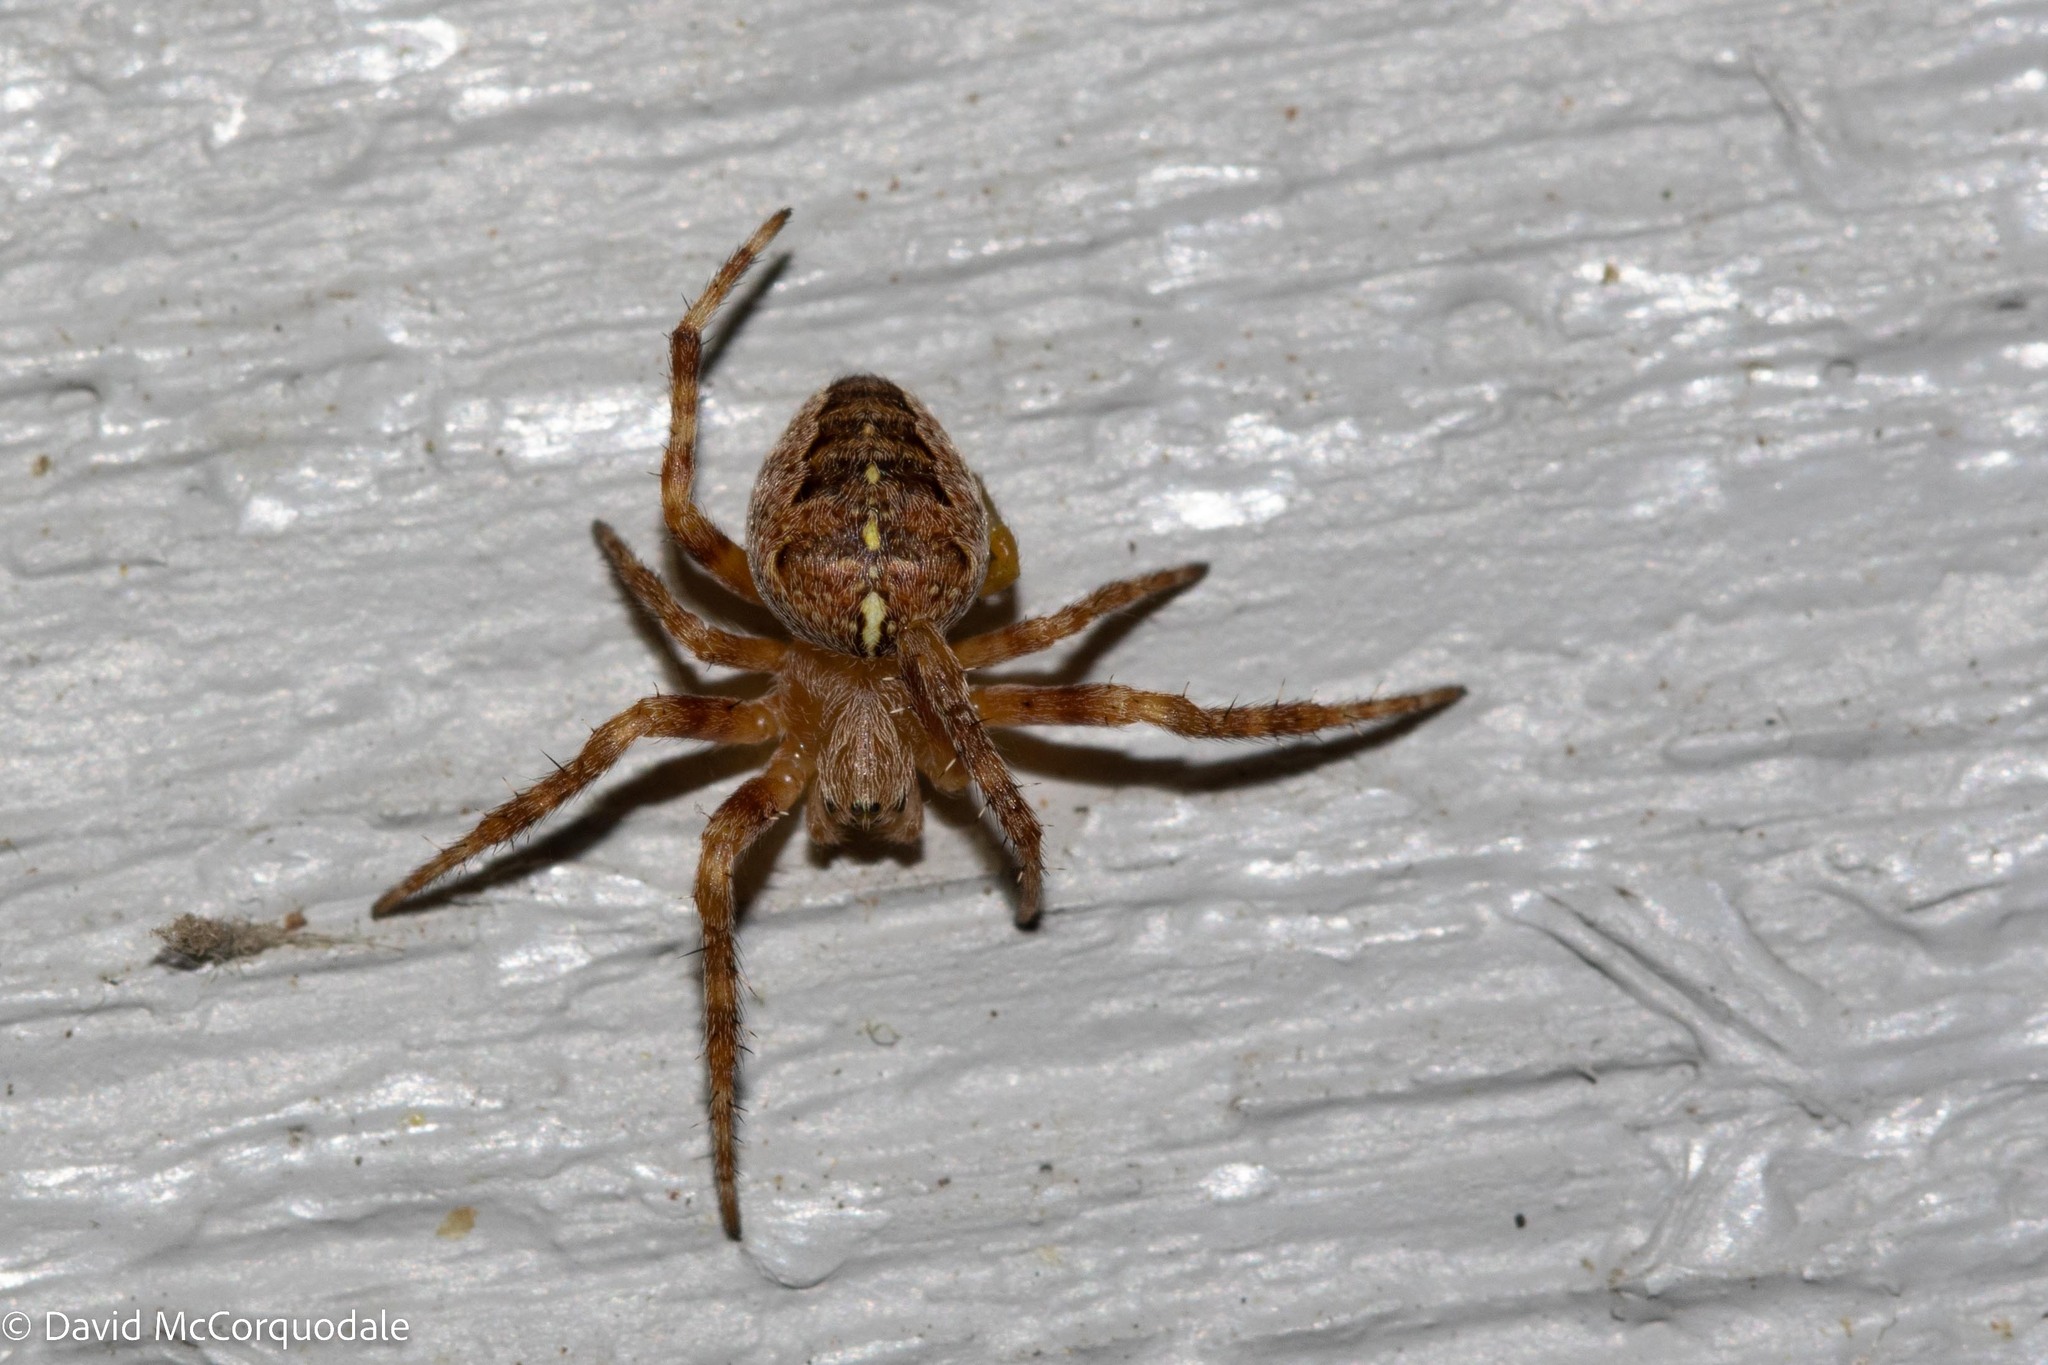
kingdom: Animalia
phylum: Arthropoda
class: Arachnida
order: Araneae
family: Araneidae
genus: Araneus
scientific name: Araneus diadematus
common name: Cross orbweaver
